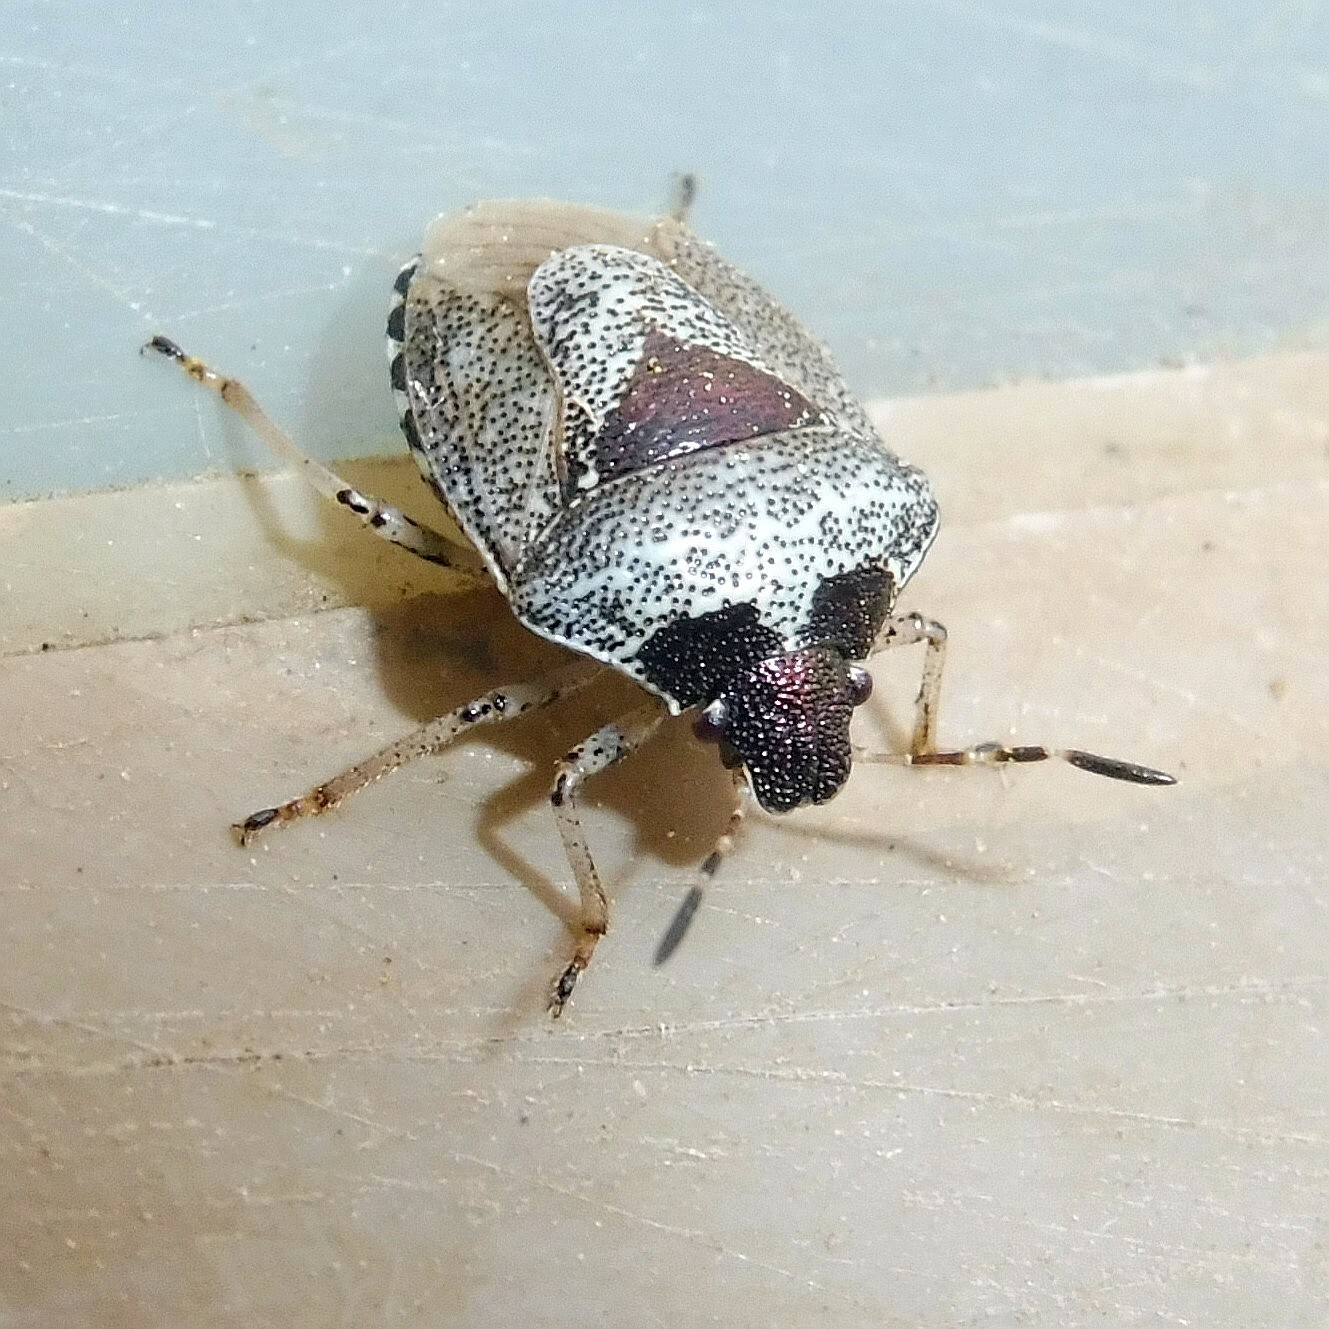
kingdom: Animalia
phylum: Arthropoda
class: Insecta
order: Hemiptera
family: Pentatomidae
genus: Eysarcoris
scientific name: Eysarcoris venustissimus
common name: Woundwort shieldbug
